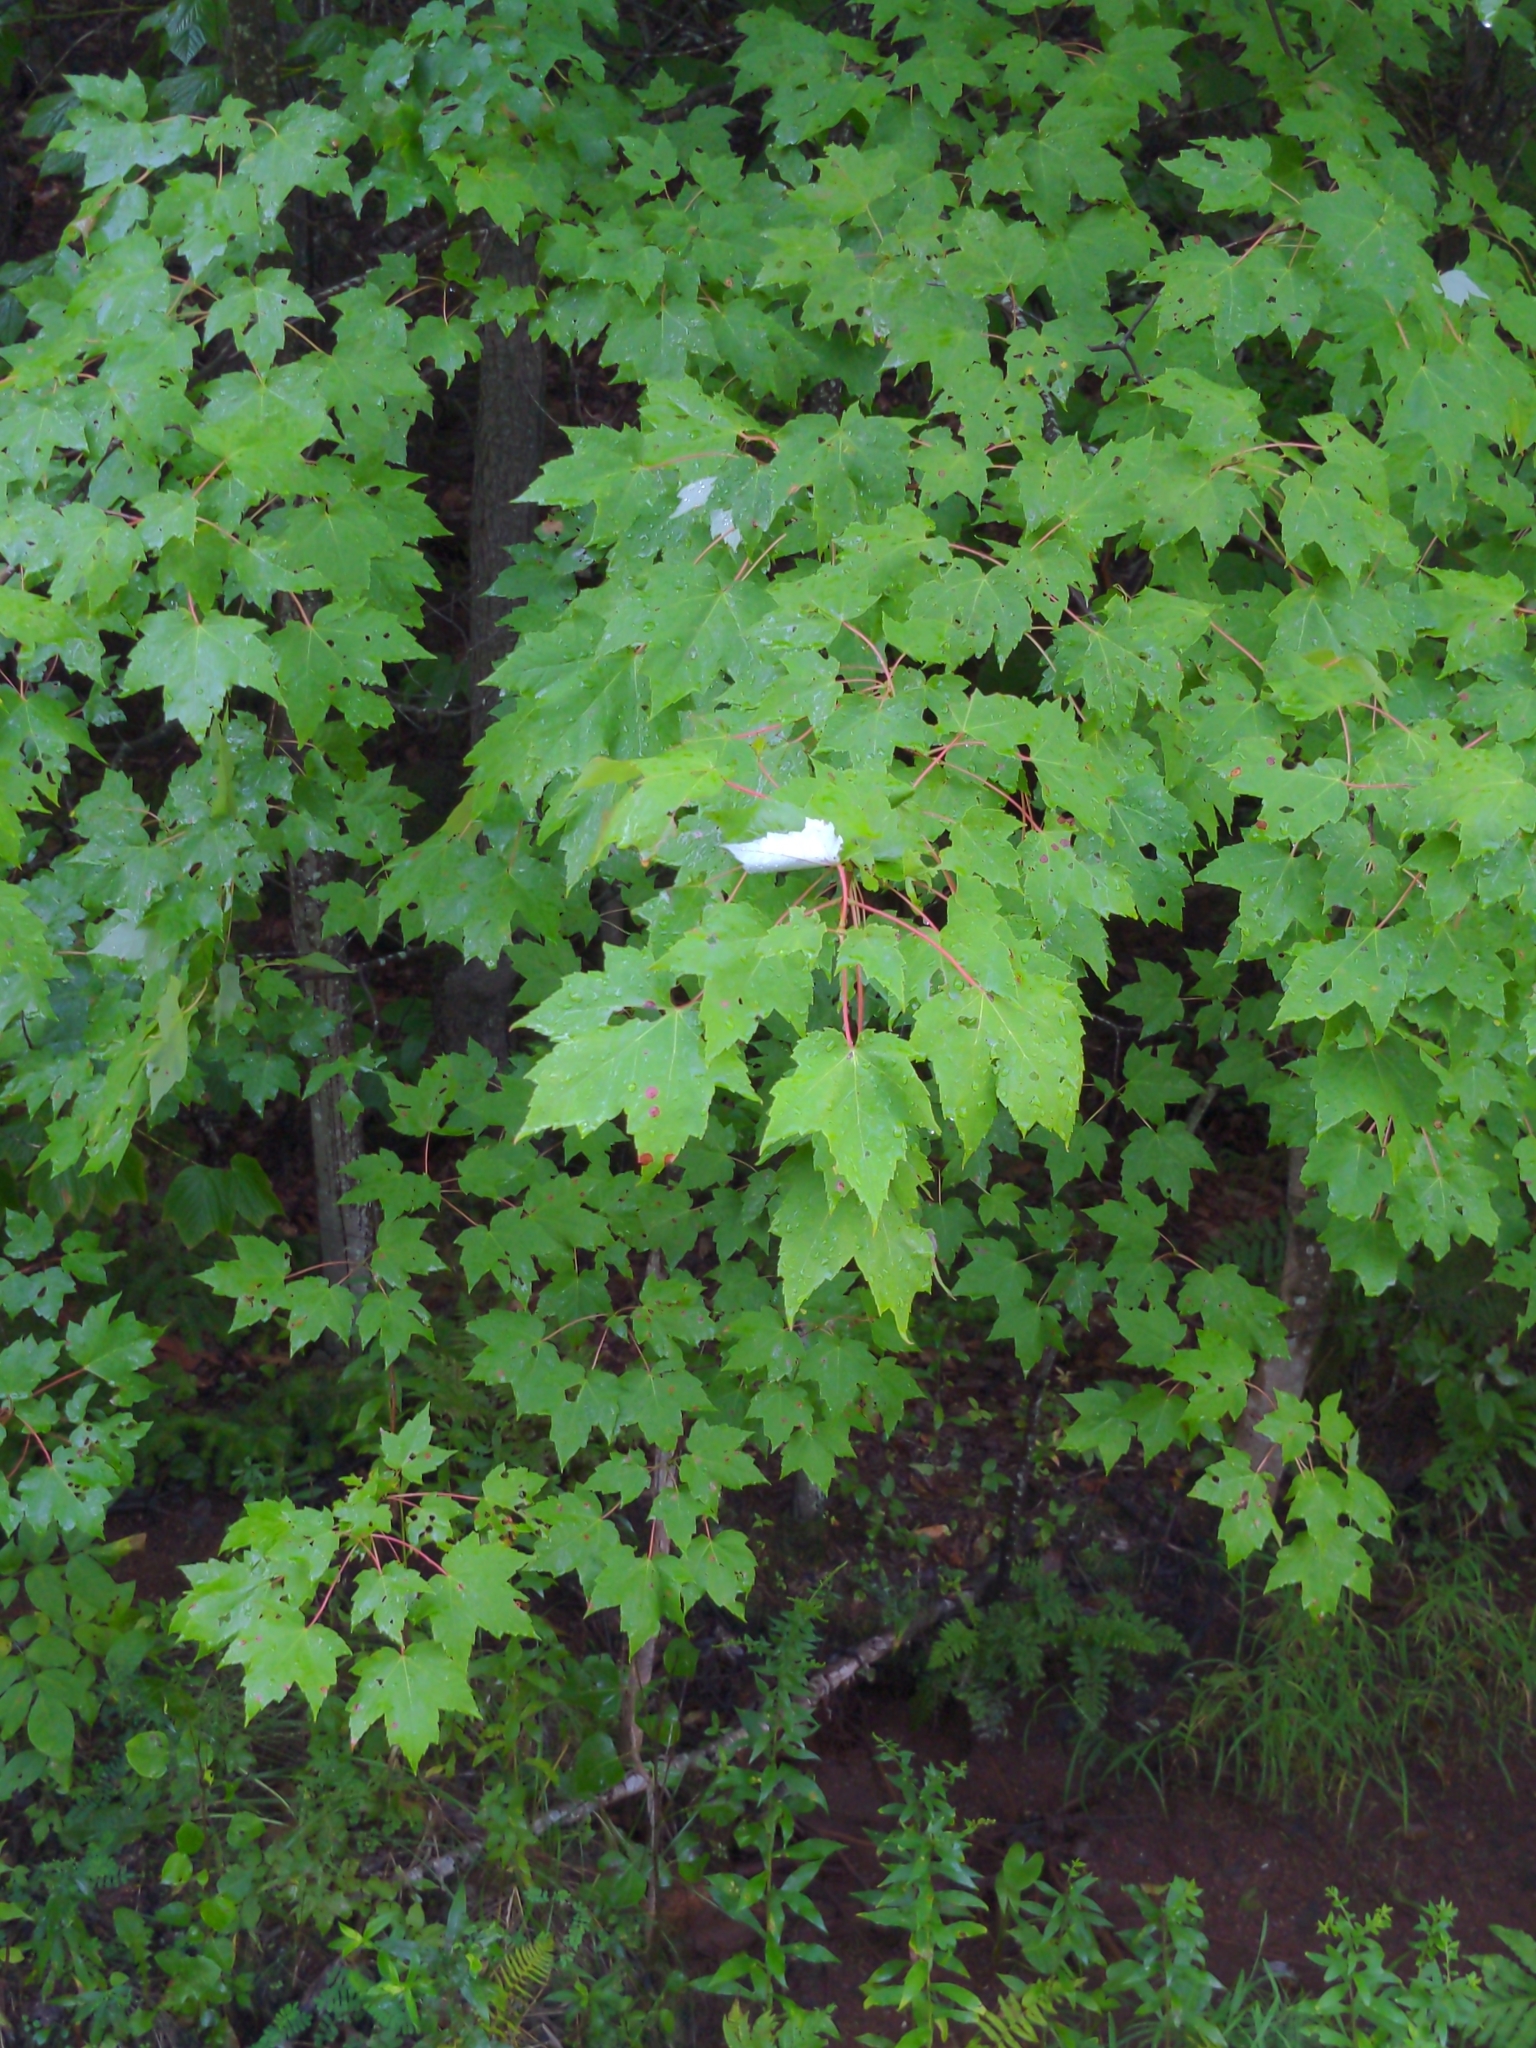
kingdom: Plantae
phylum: Tracheophyta
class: Magnoliopsida
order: Sapindales
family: Sapindaceae
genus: Acer
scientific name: Acer rubrum
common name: Red maple
